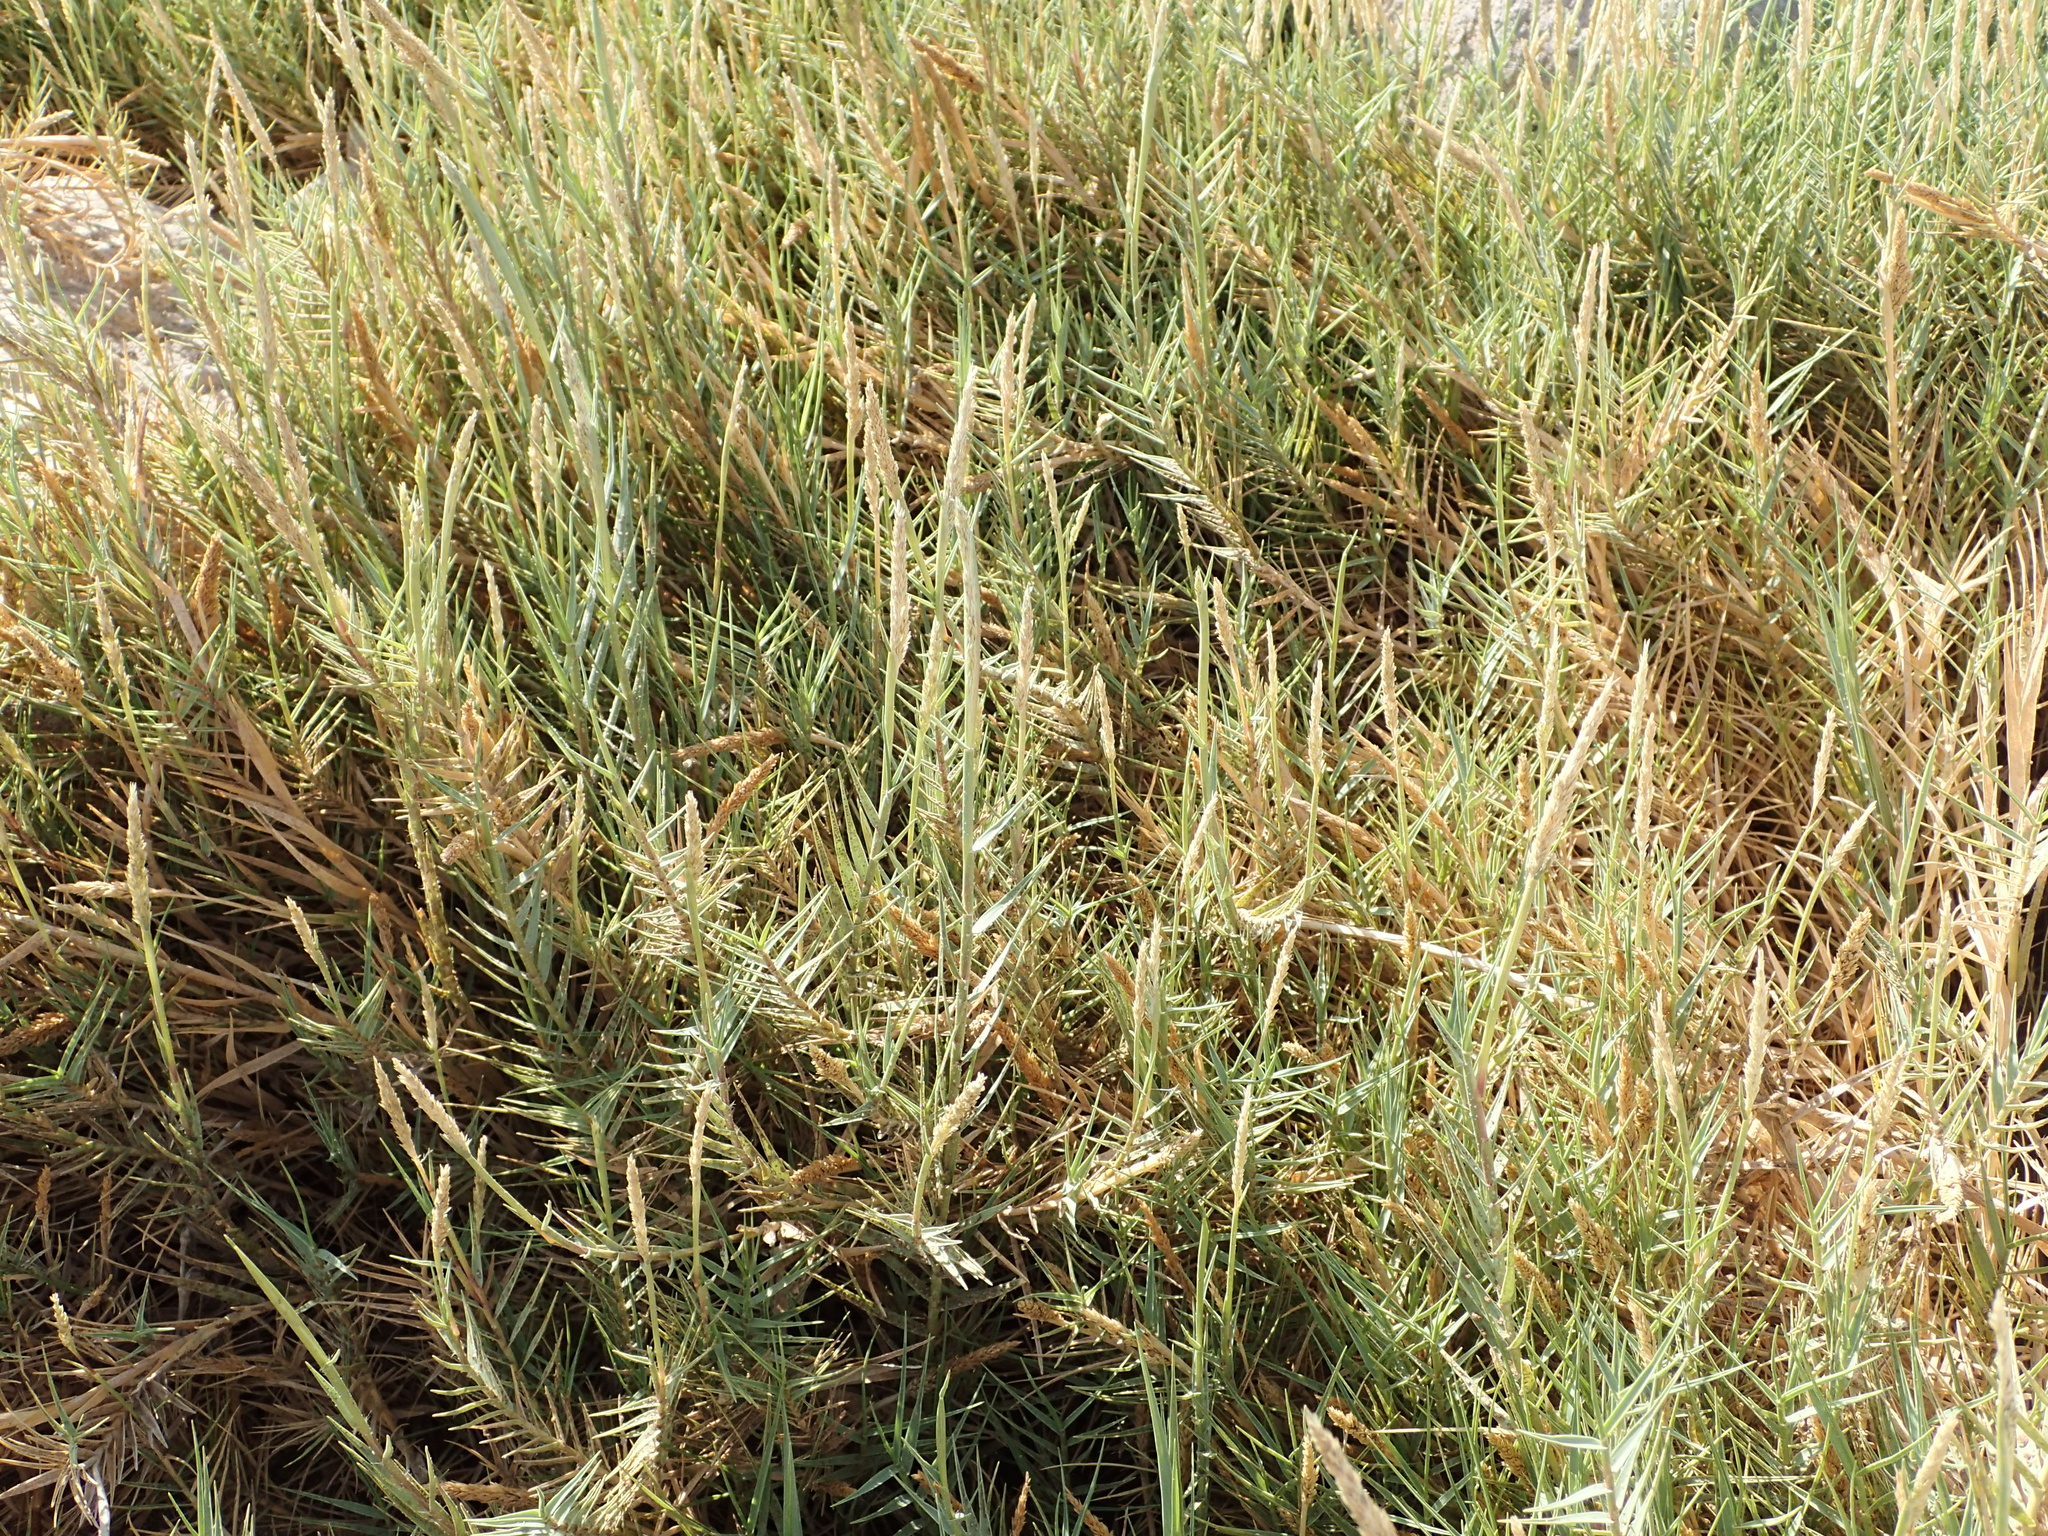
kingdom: Plantae
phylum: Tracheophyta
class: Liliopsida
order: Poales
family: Poaceae
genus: Distichlis
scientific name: Distichlis spicata
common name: Saltgrass
